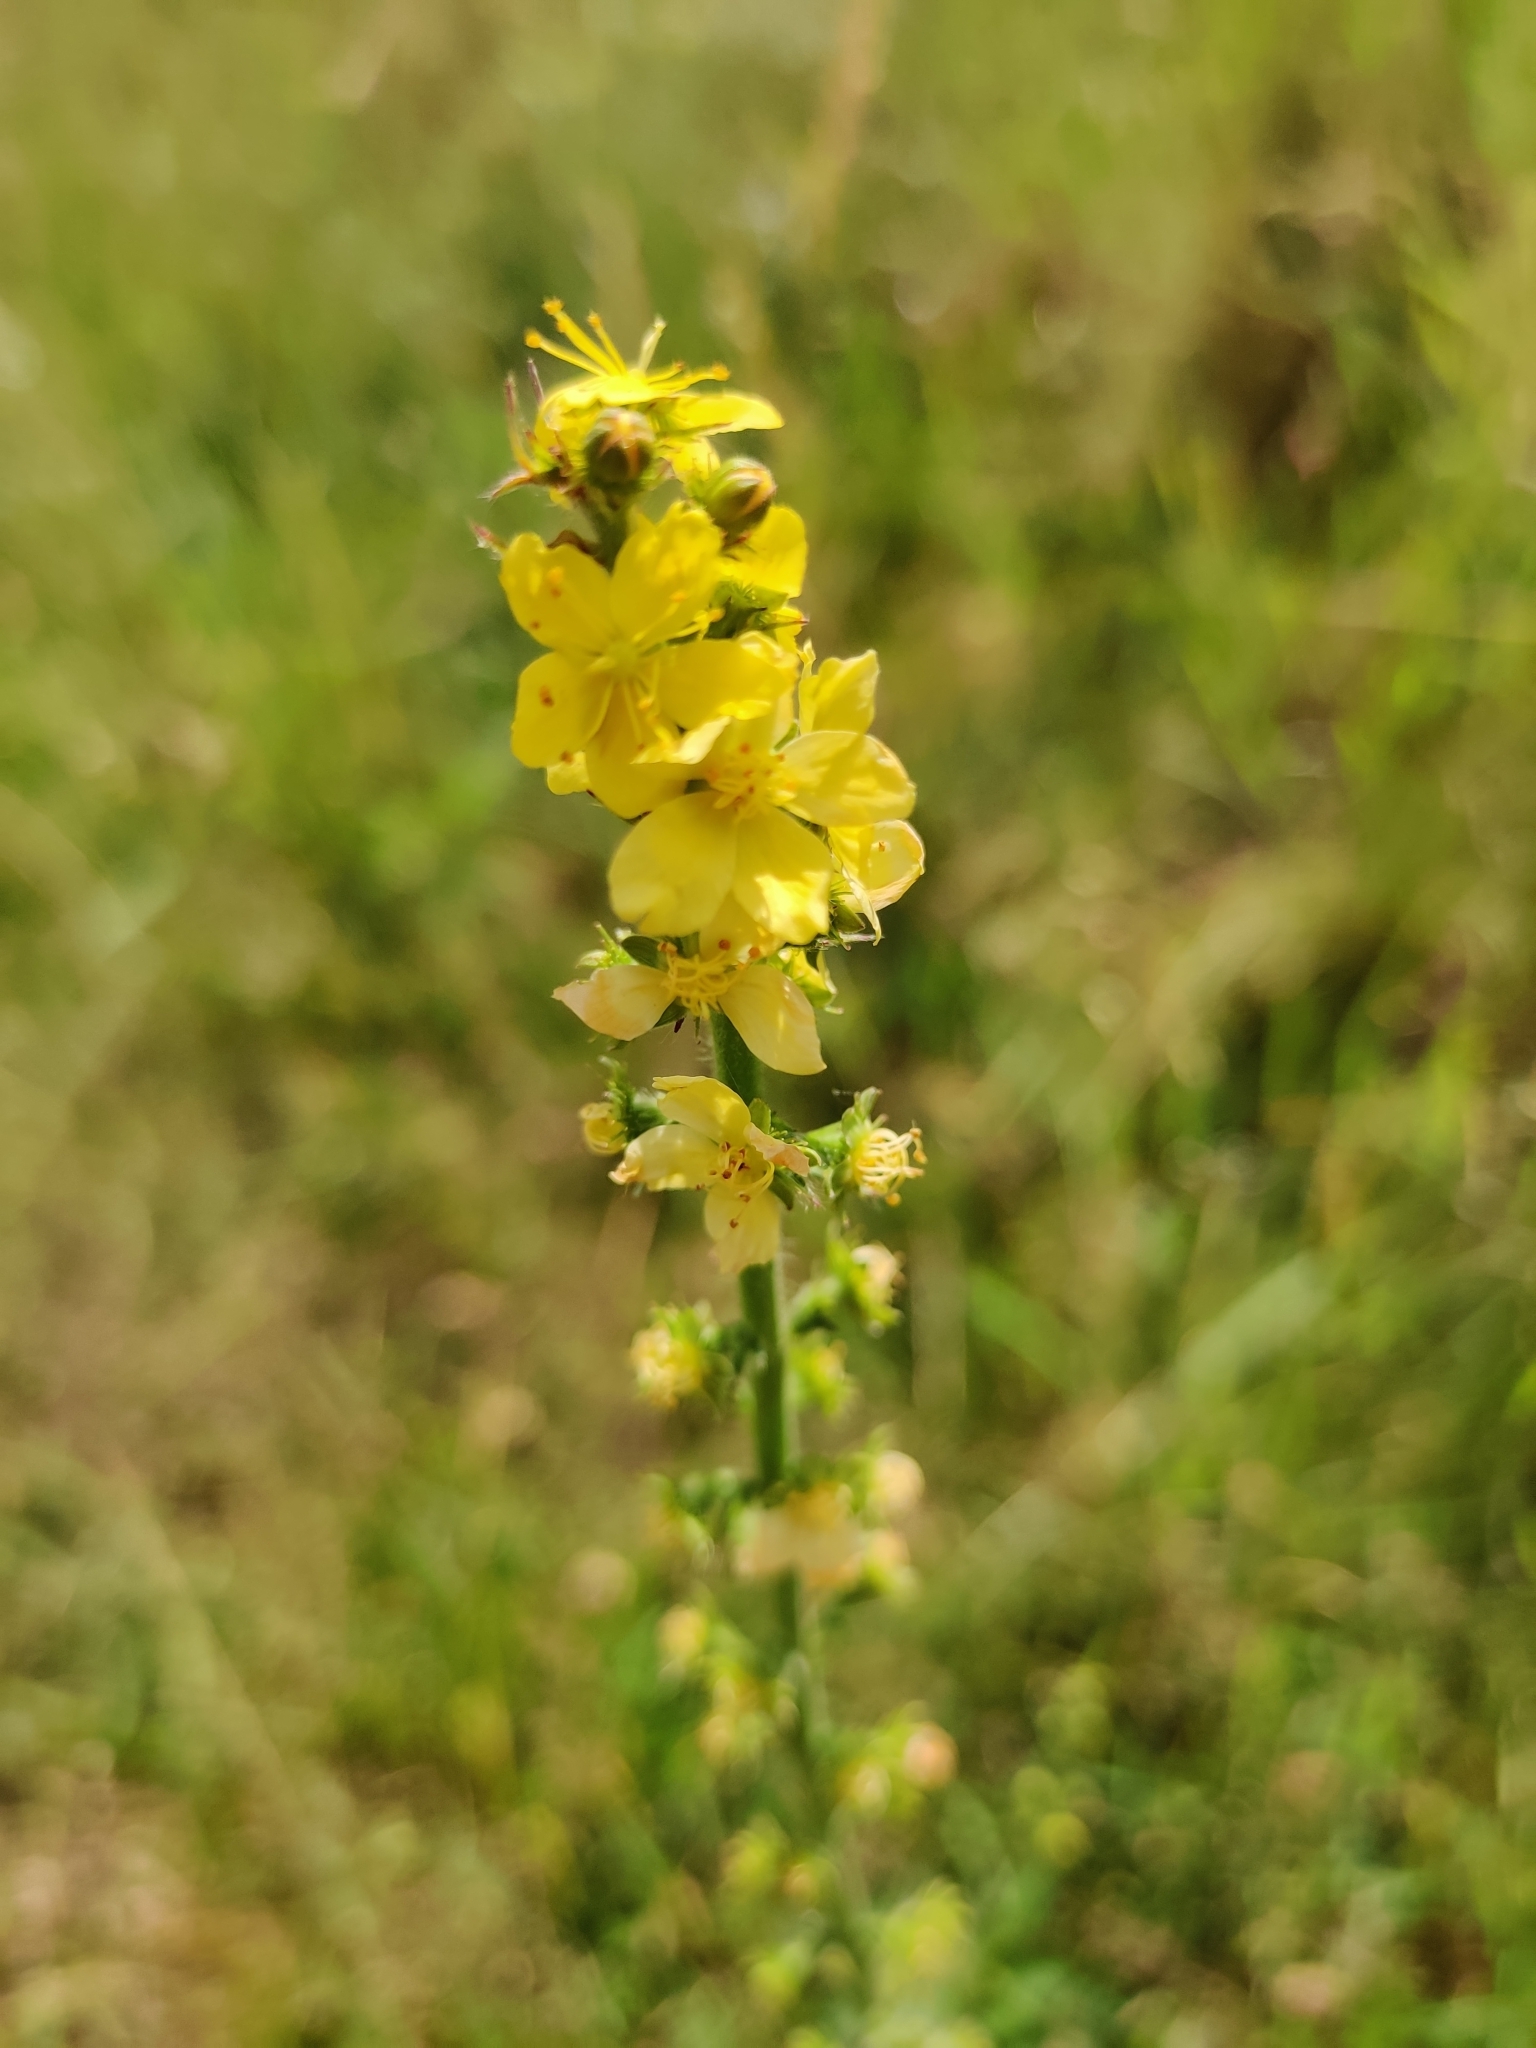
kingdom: Plantae
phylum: Tracheophyta
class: Magnoliopsida
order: Rosales
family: Rosaceae
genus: Agrimonia
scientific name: Agrimonia eupatoria
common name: Agrimony
